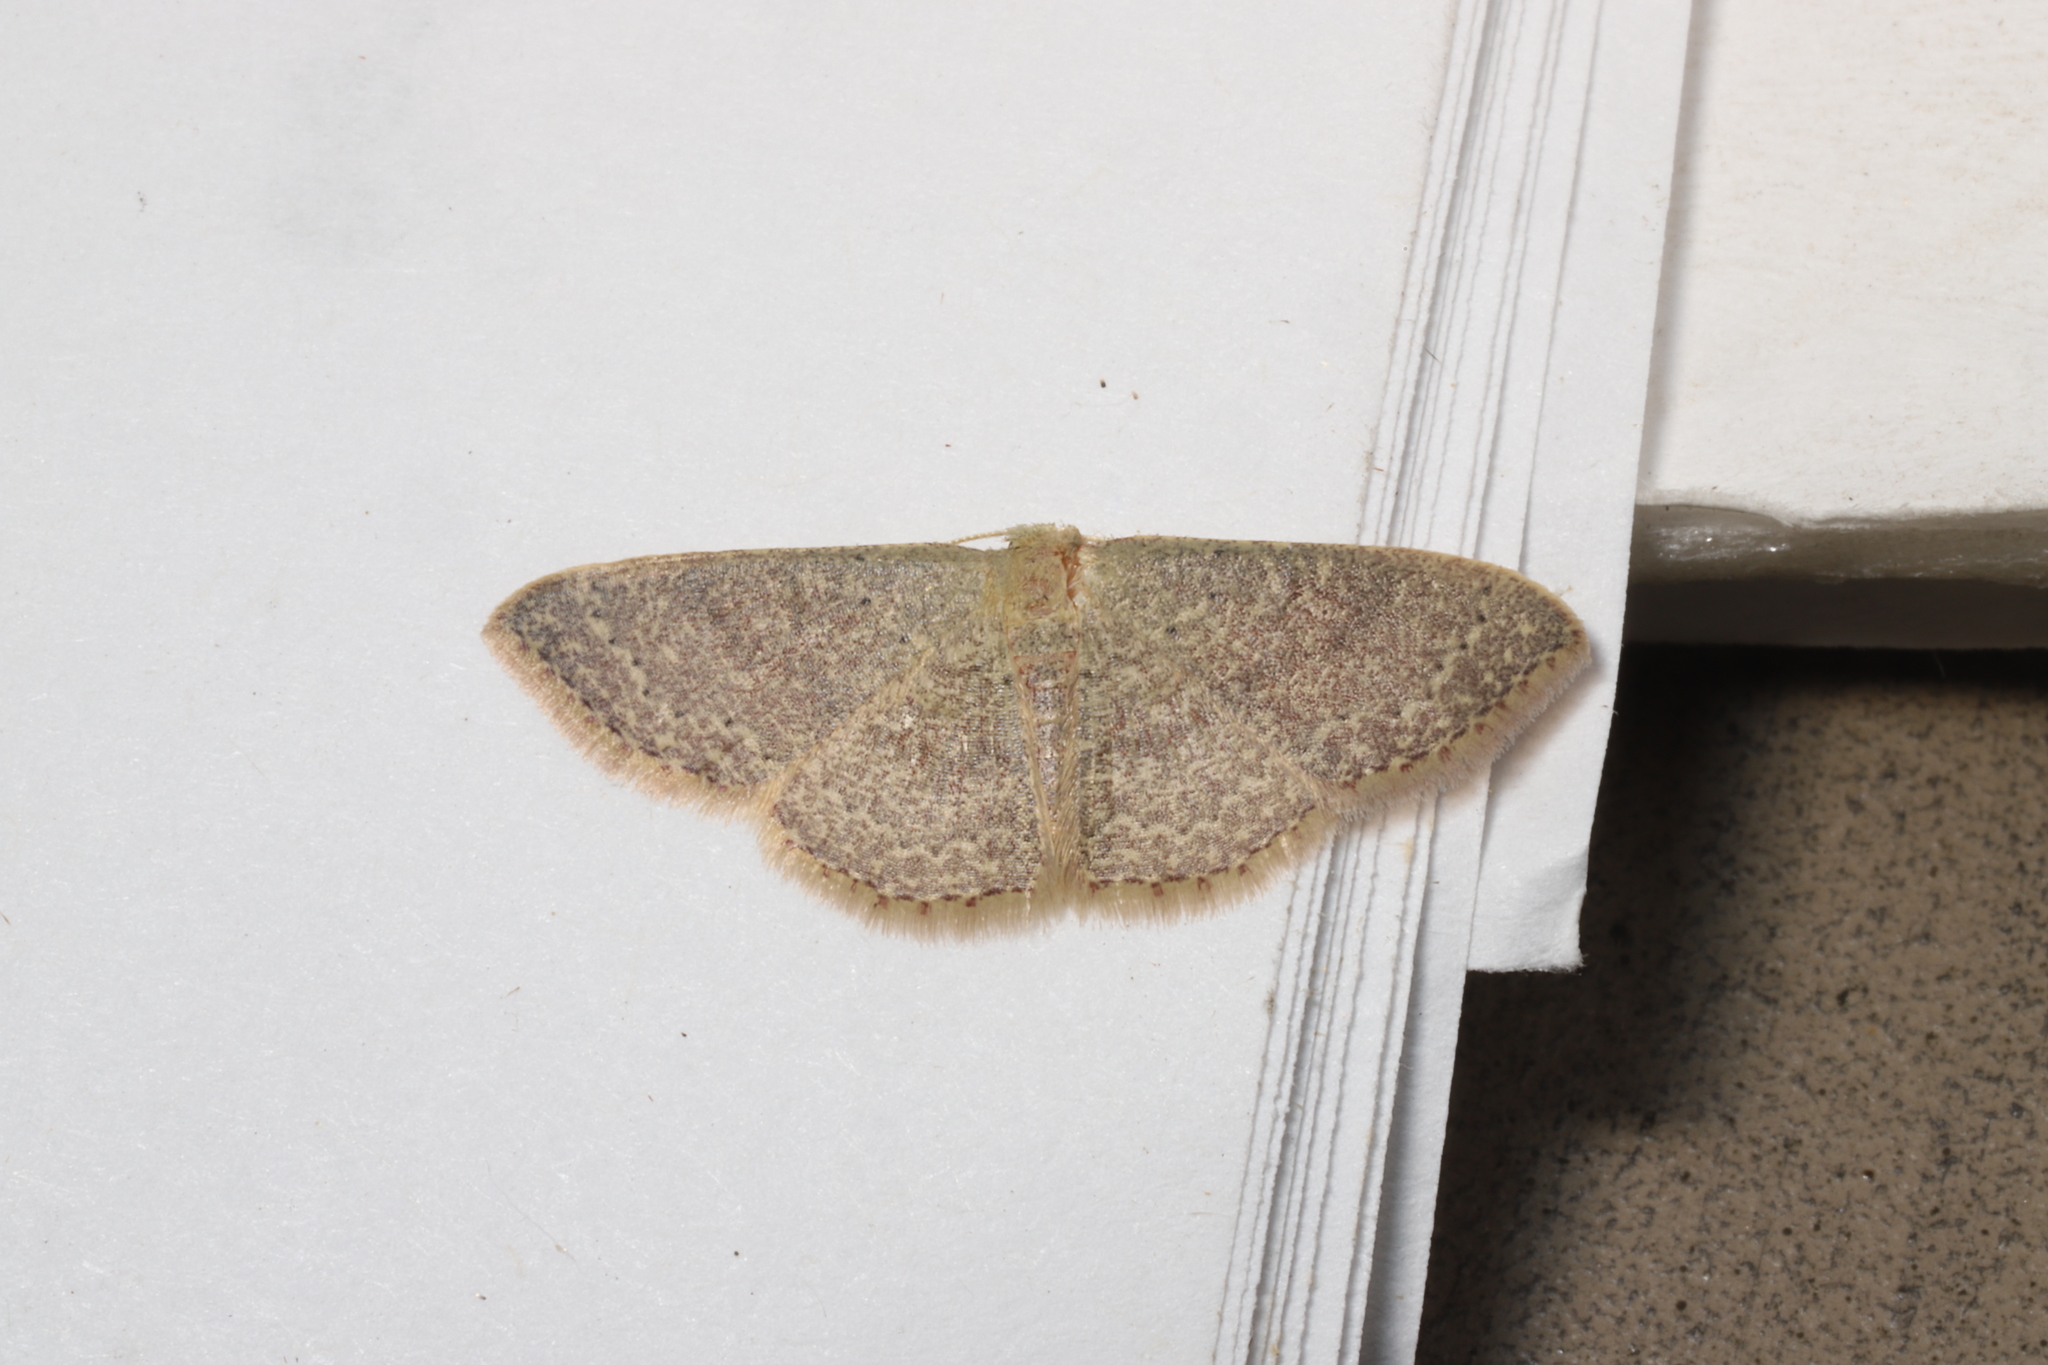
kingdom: Animalia
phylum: Arthropoda
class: Insecta
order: Lepidoptera
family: Geometridae
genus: Pleuroprucha
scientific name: Pleuroprucha insulsaria
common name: Common tan wave
